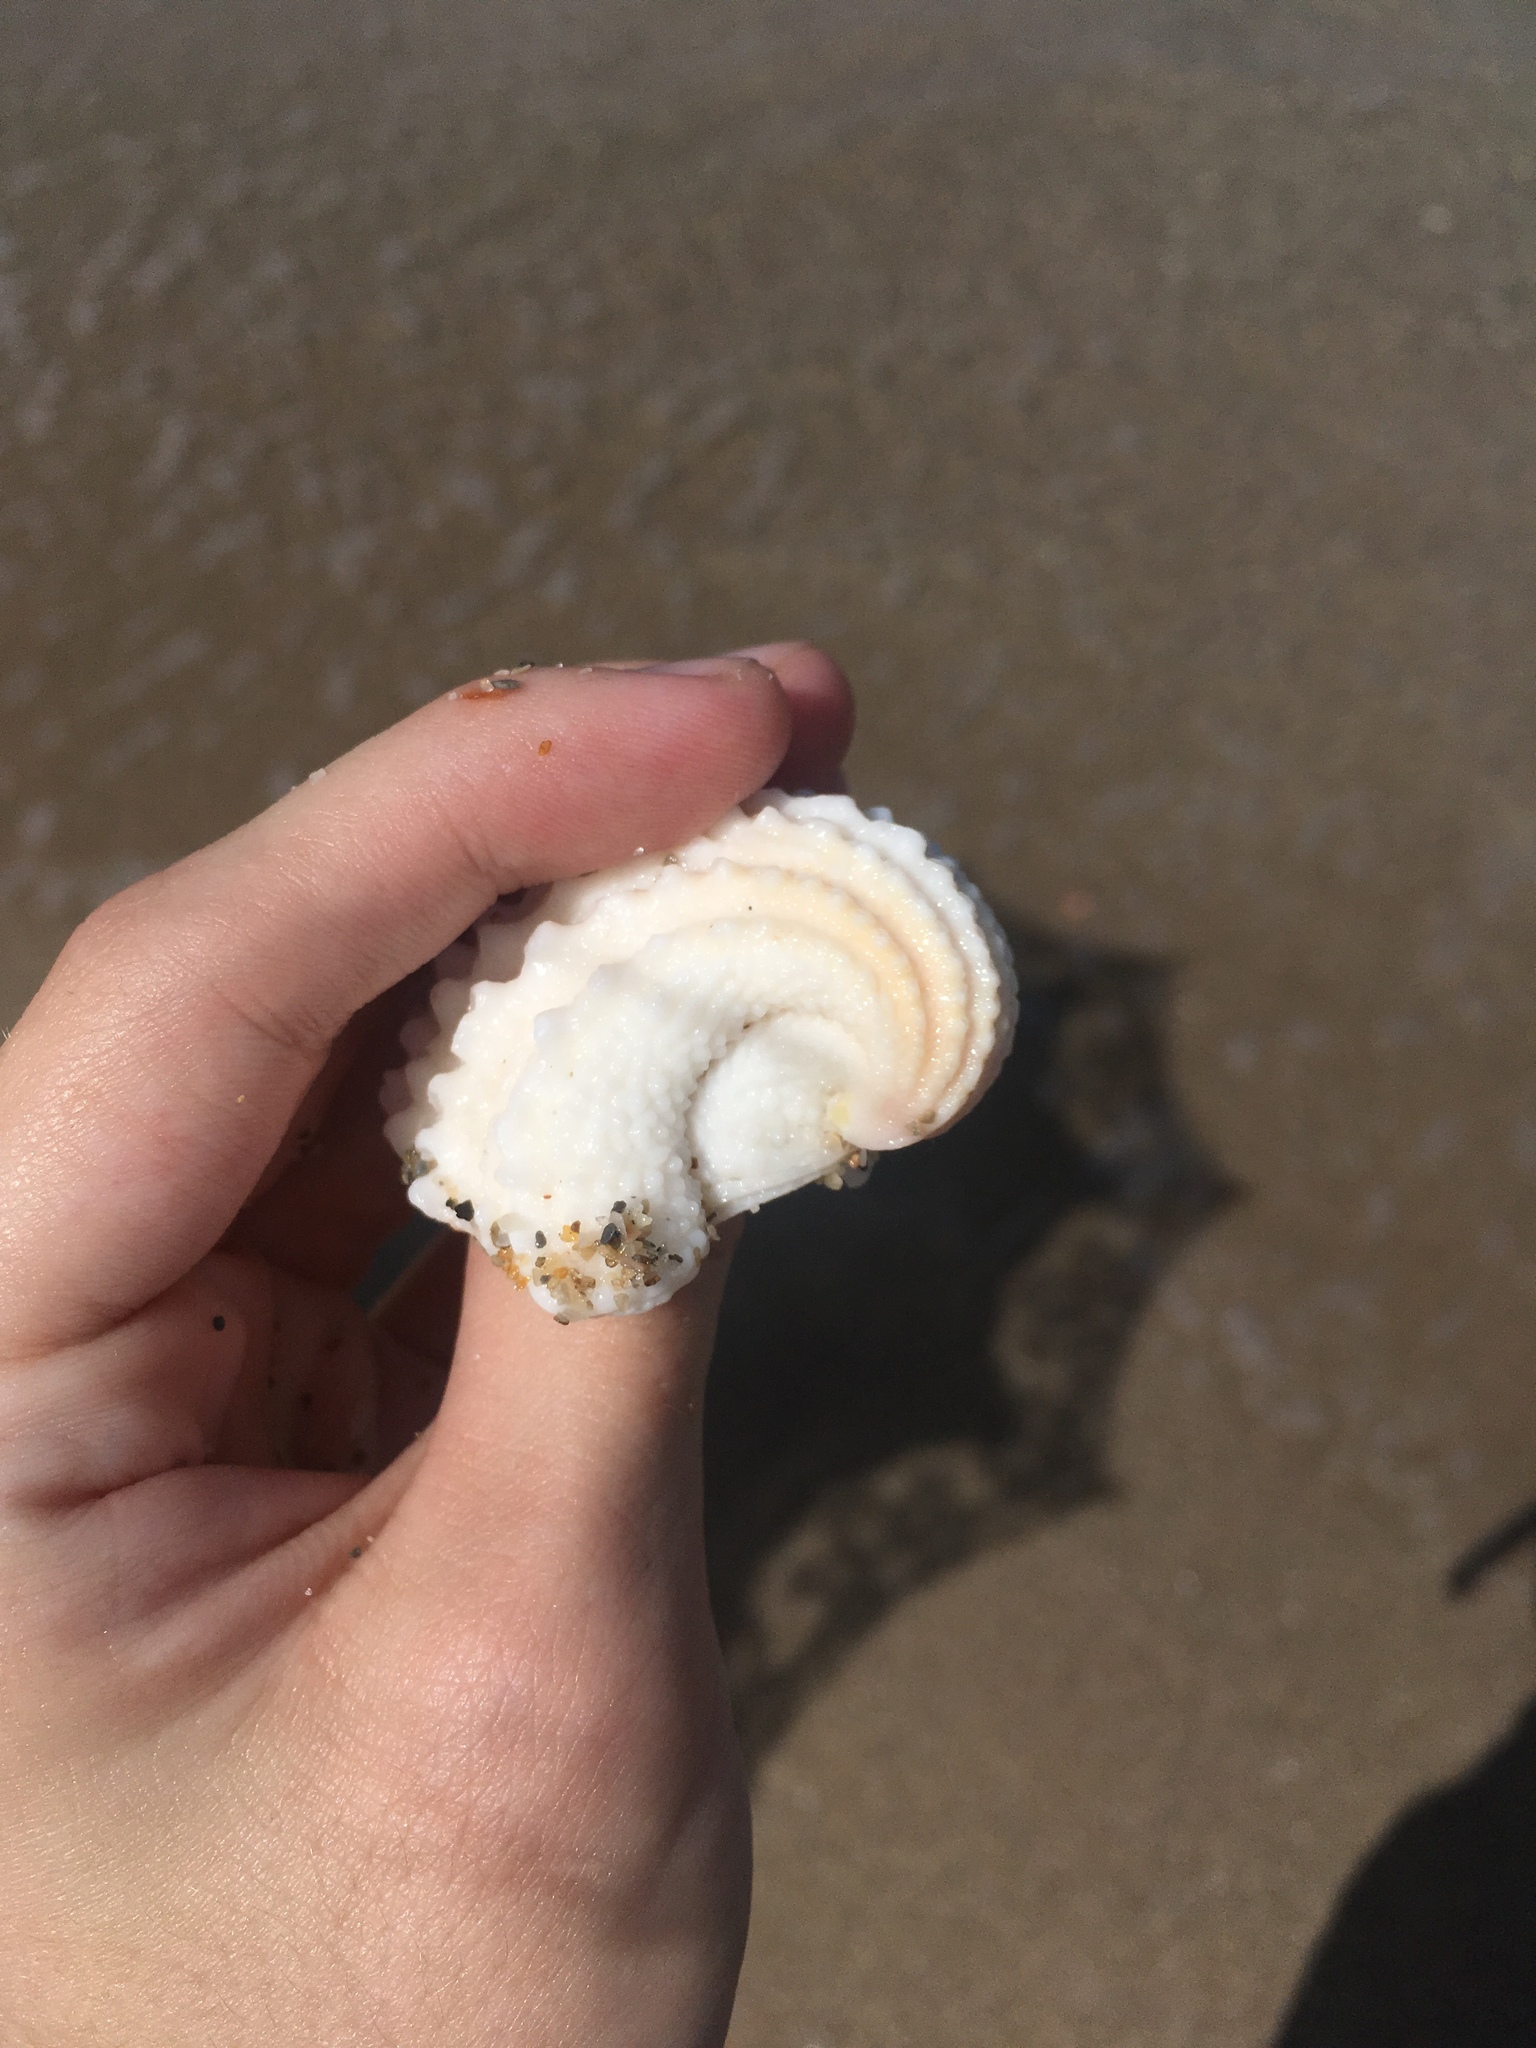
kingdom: Animalia
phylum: Mollusca
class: Bivalvia
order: Venerida
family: Chamidae
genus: Arcinella
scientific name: Arcinella cornuta
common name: Florida spiny jewel box
